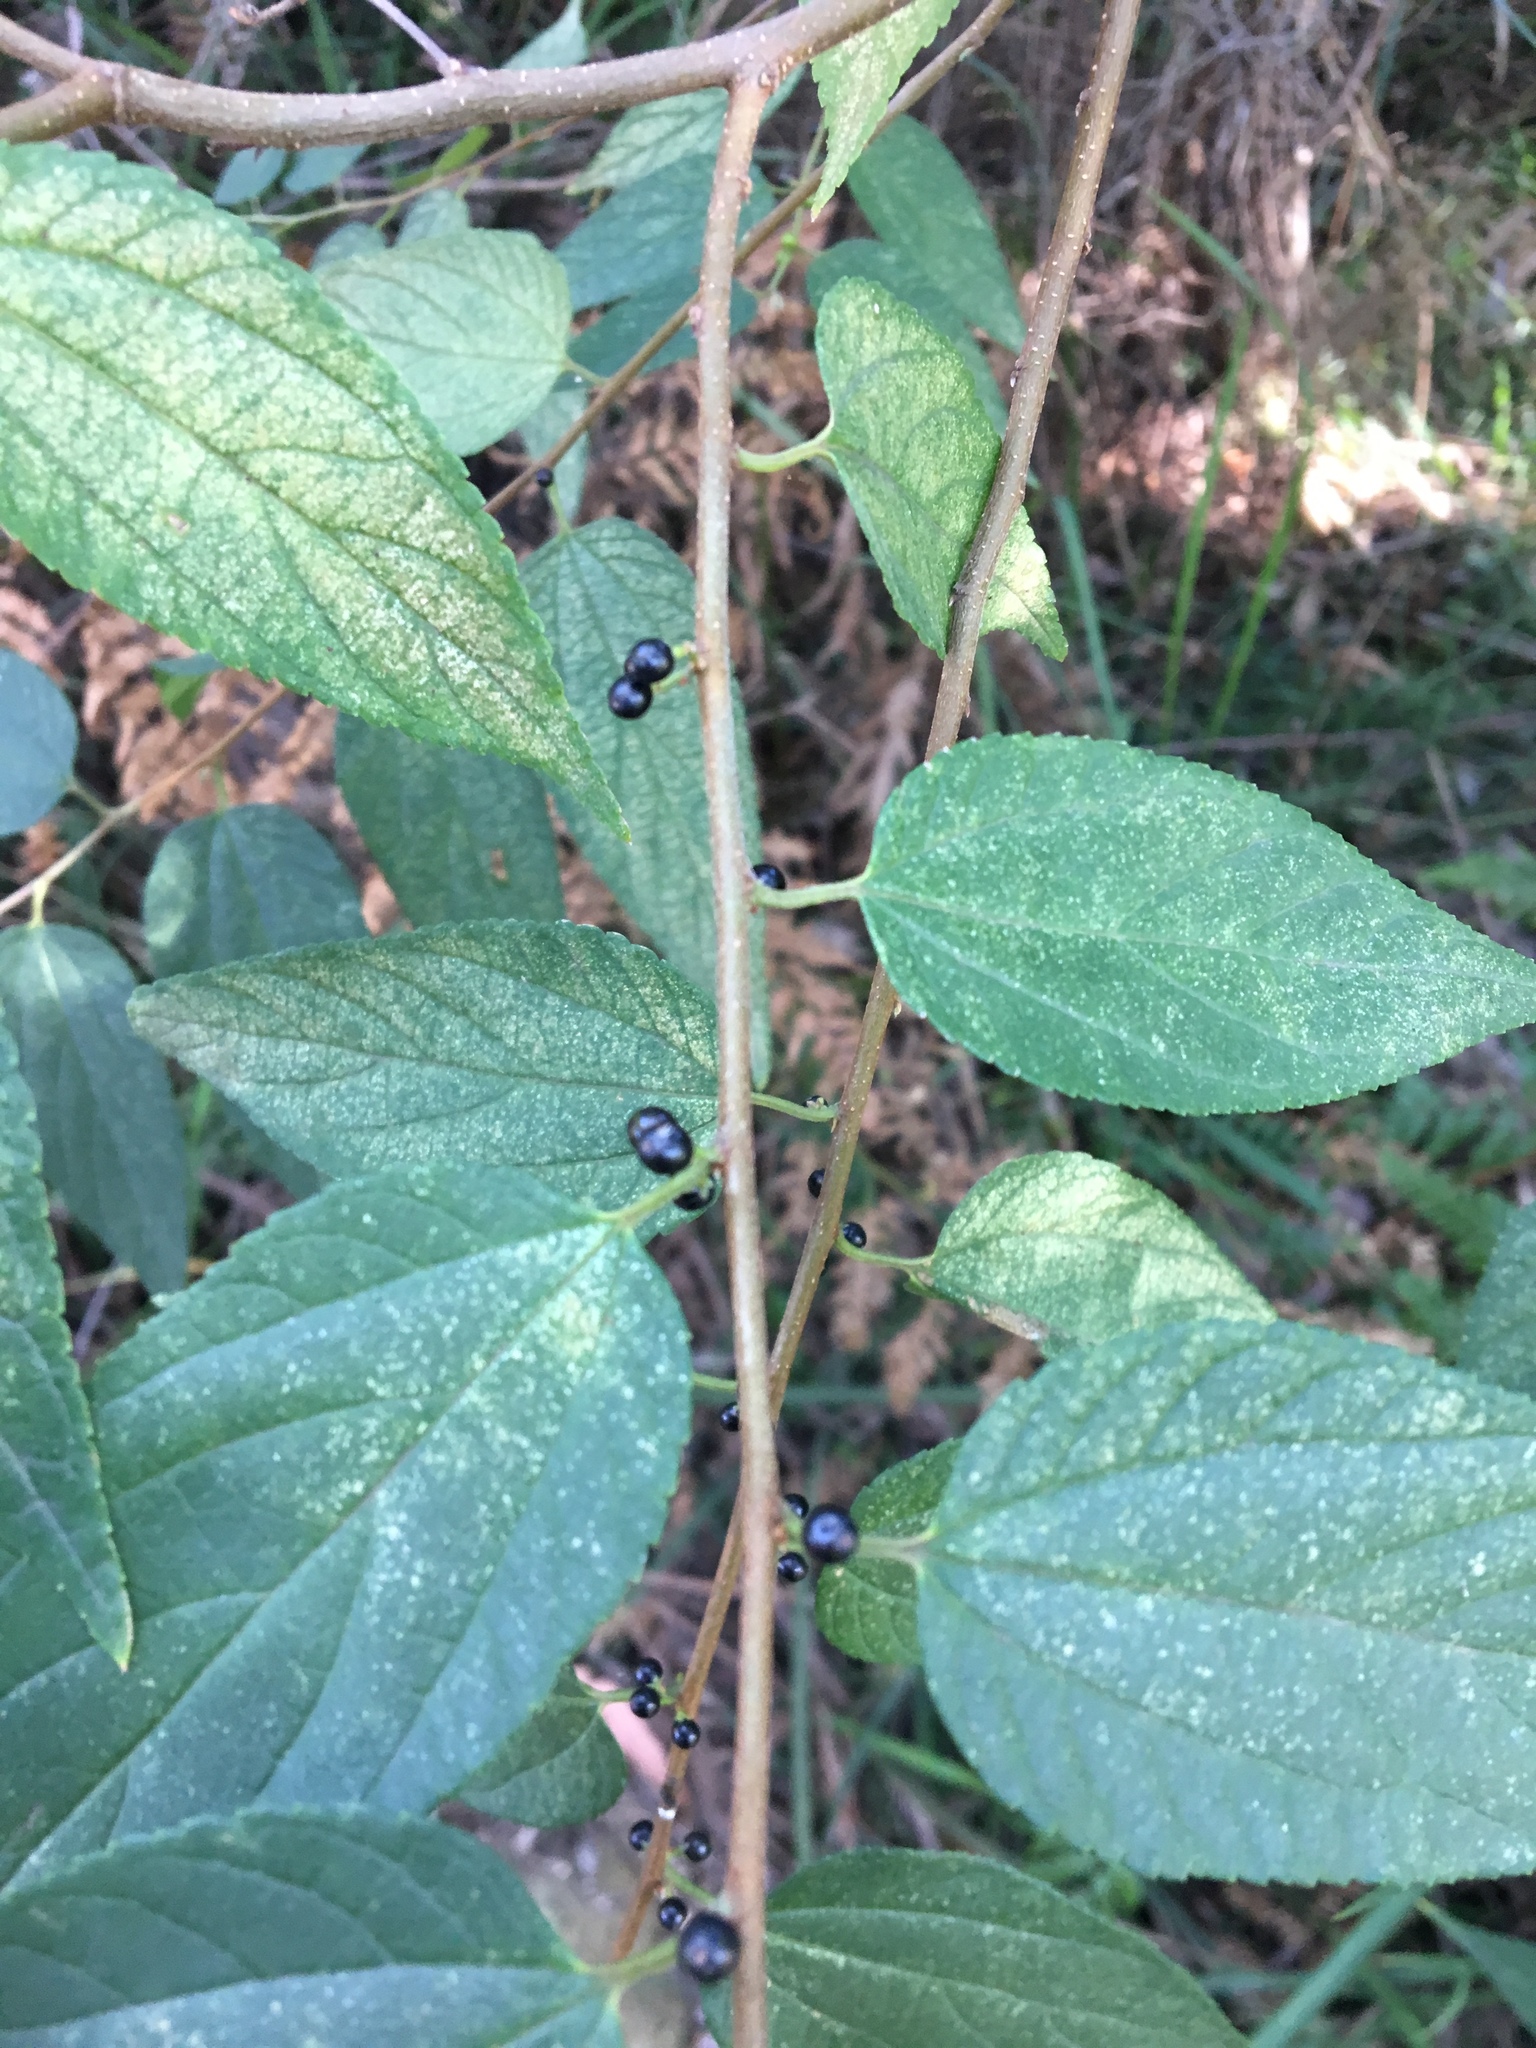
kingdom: Plantae
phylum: Tracheophyta
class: Magnoliopsida
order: Rosales
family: Cannabaceae
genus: Trema
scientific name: Trema tomentosum
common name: Peach-leaf-poisonbush
